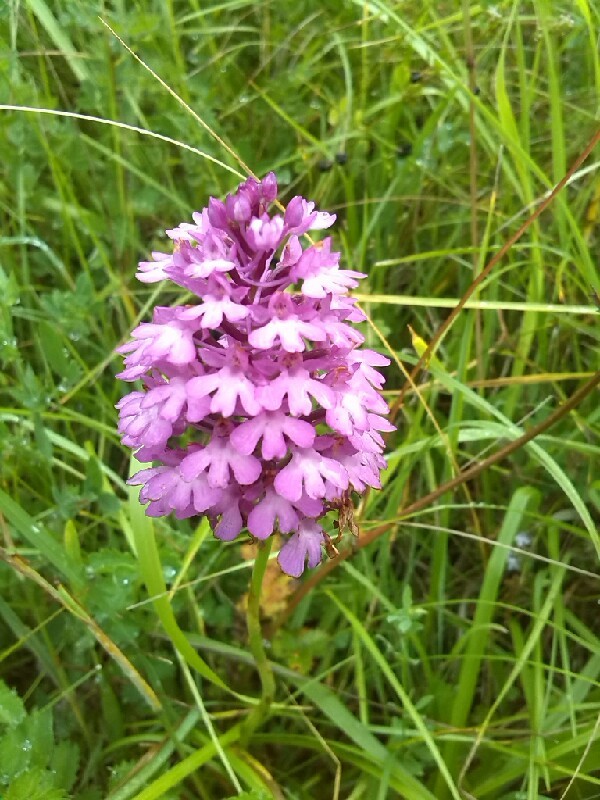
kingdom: Plantae
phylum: Tracheophyta
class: Liliopsida
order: Asparagales
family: Orchidaceae
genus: Anacamptis
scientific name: Anacamptis pyramidalis
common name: Pyramidal orchid
